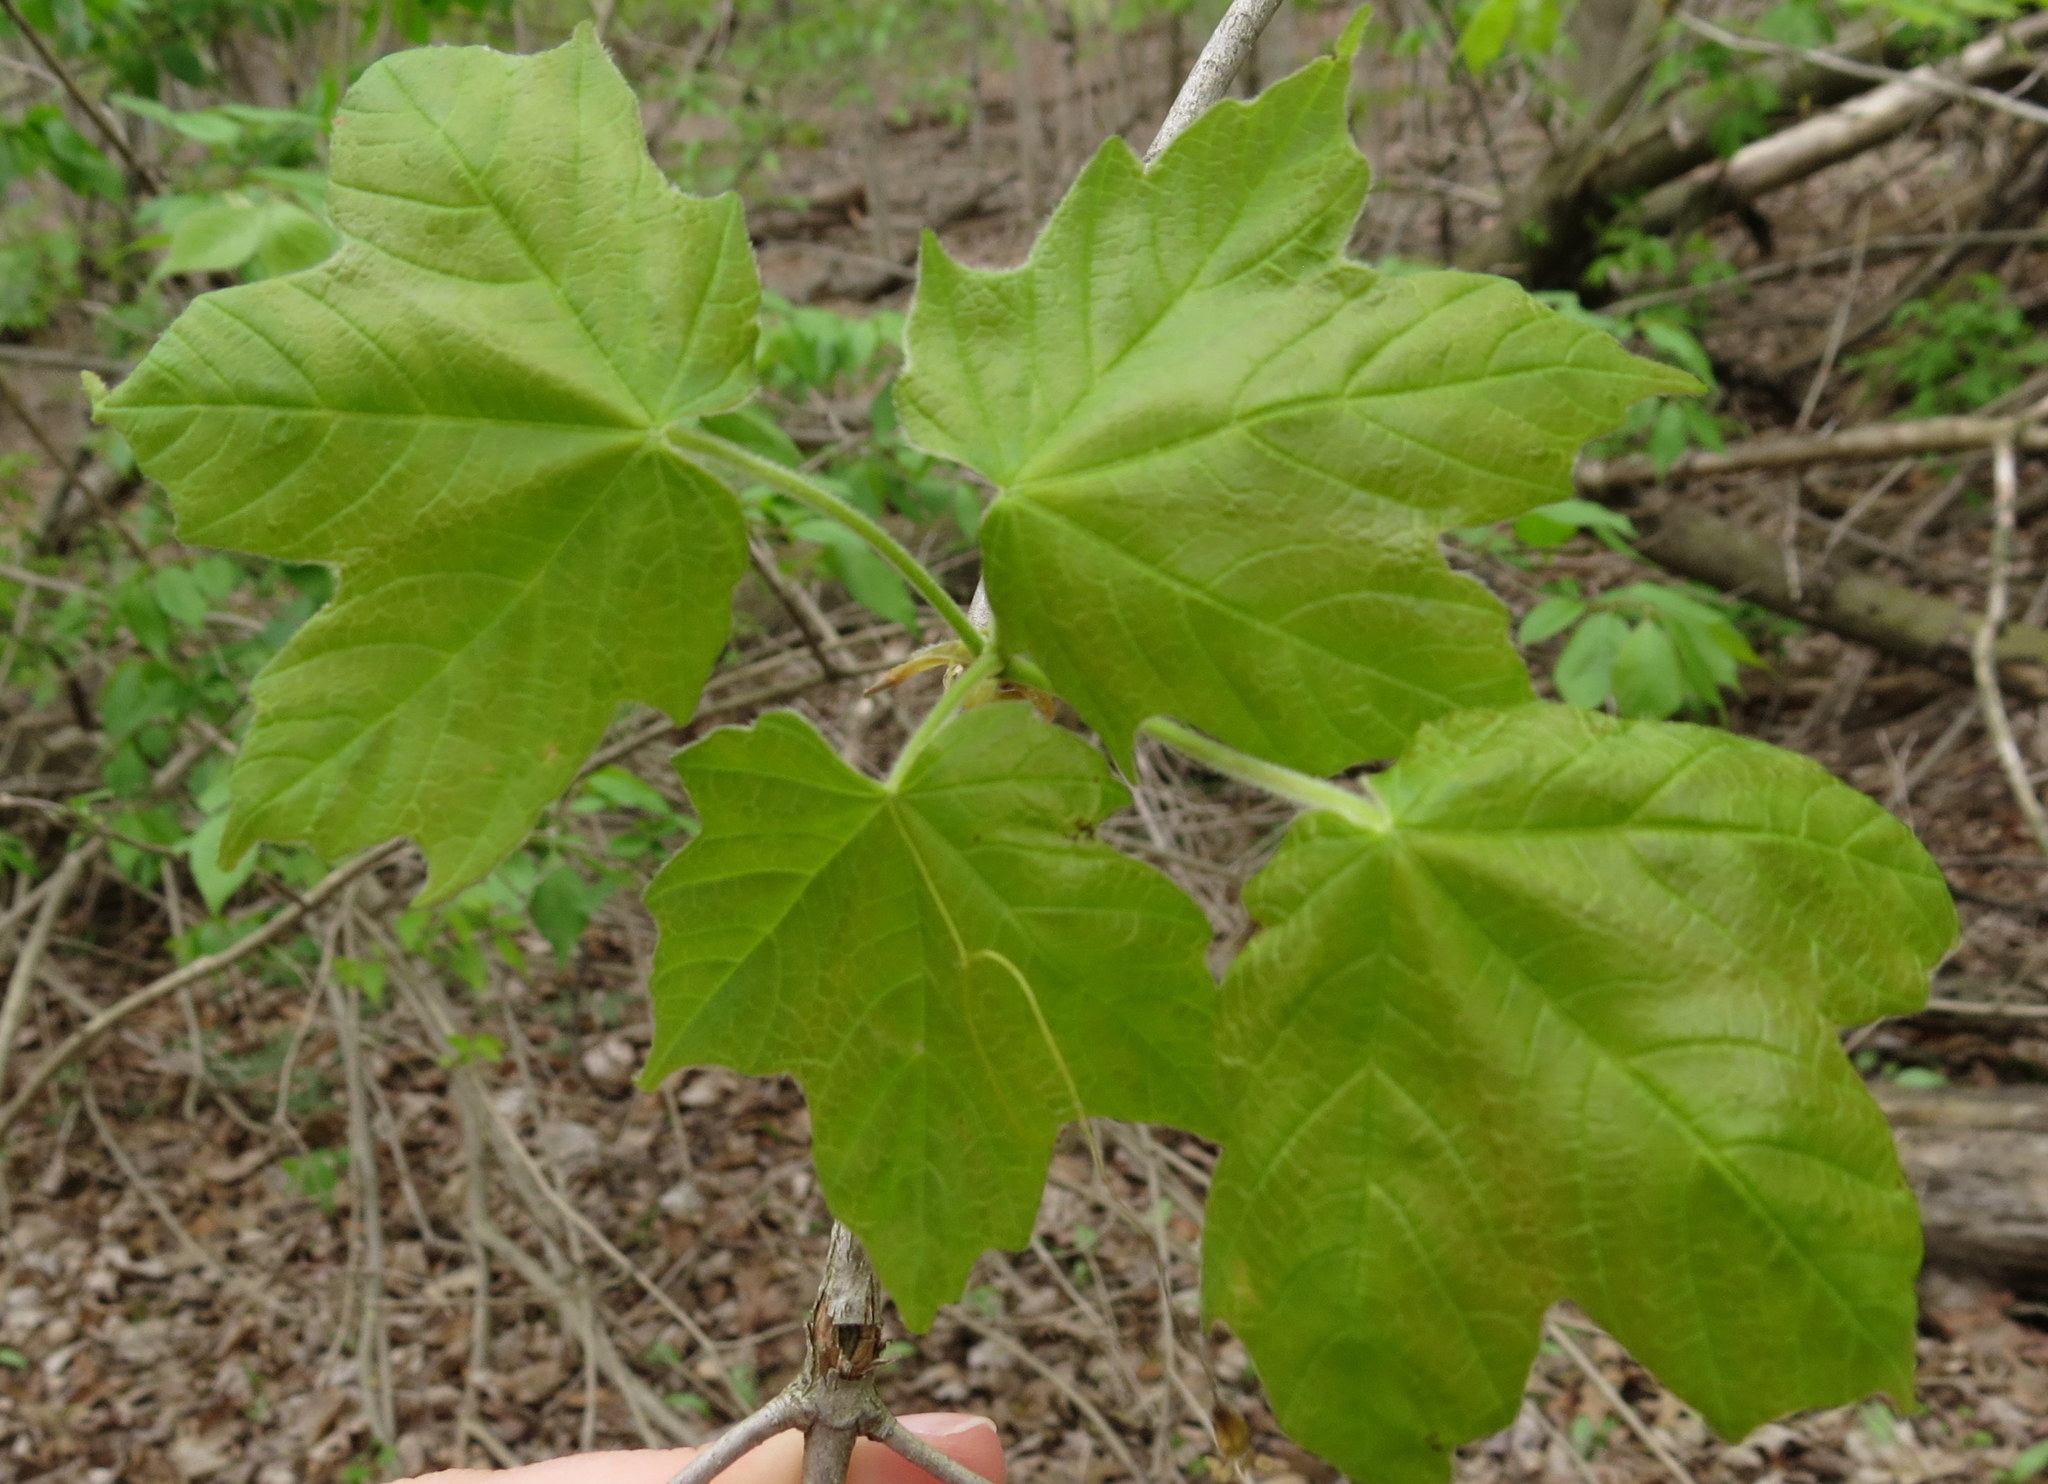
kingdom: Plantae
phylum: Tracheophyta
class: Magnoliopsida
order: Sapindales
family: Sapindaceae
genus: Acer
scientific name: Acer nigrum
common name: Black maple
